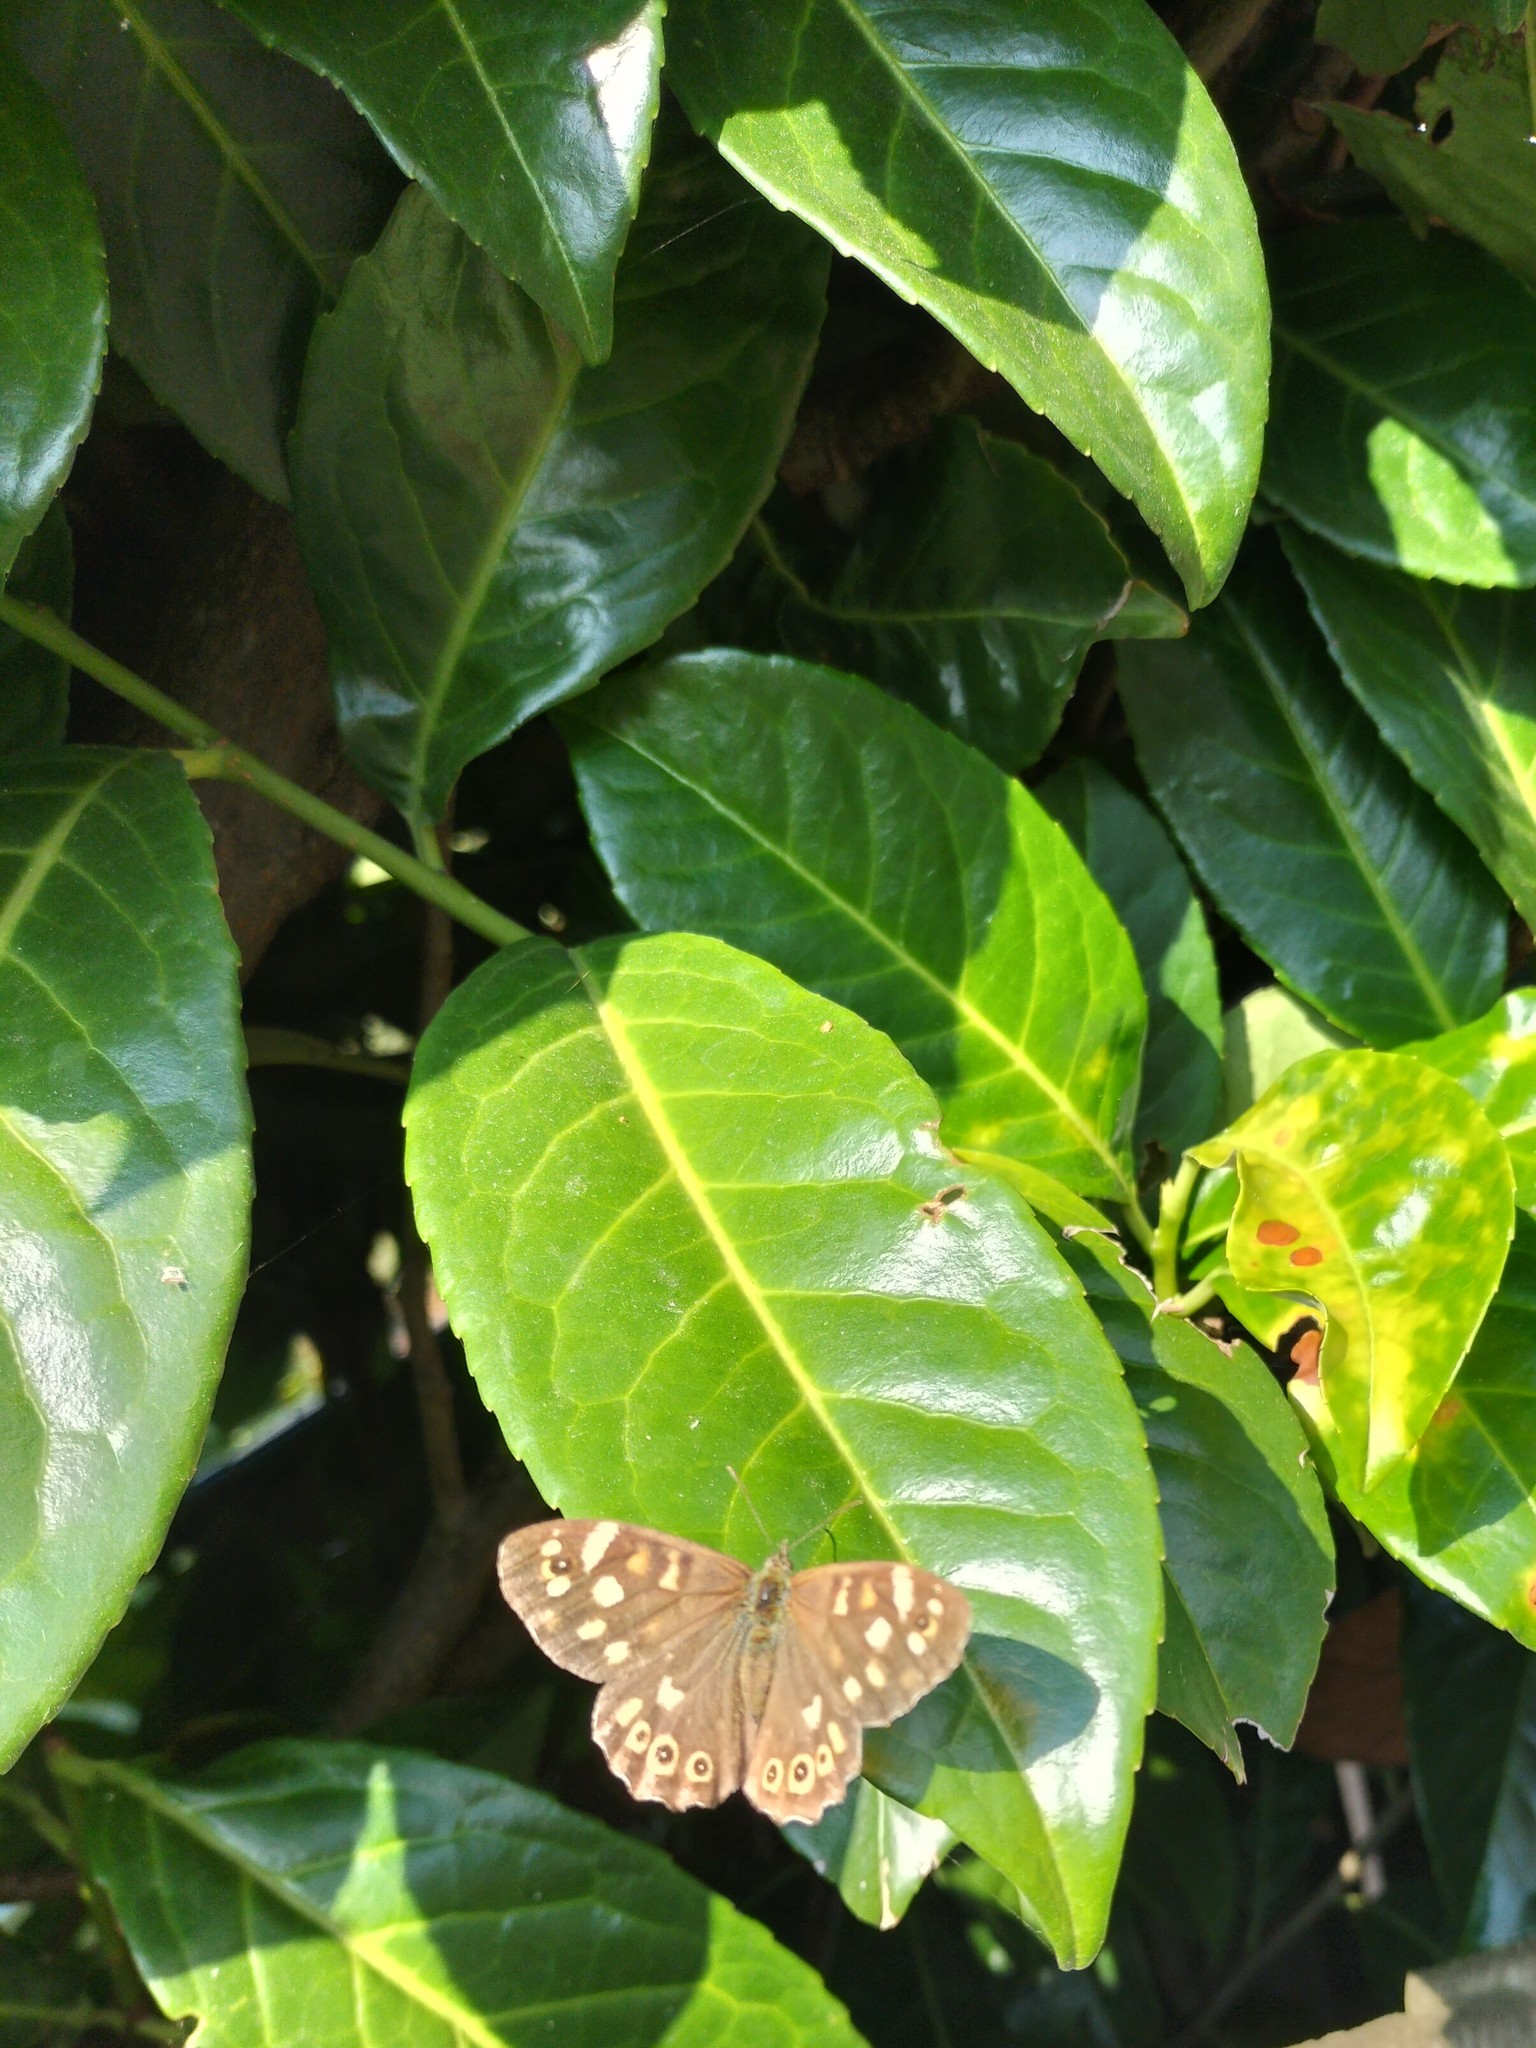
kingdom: Animalia
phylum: Arthropoda
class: Insecta
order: Lepidoptera
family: Nymphalidae
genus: Pararge
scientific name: Pararge aegeria
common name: Speckled wood
